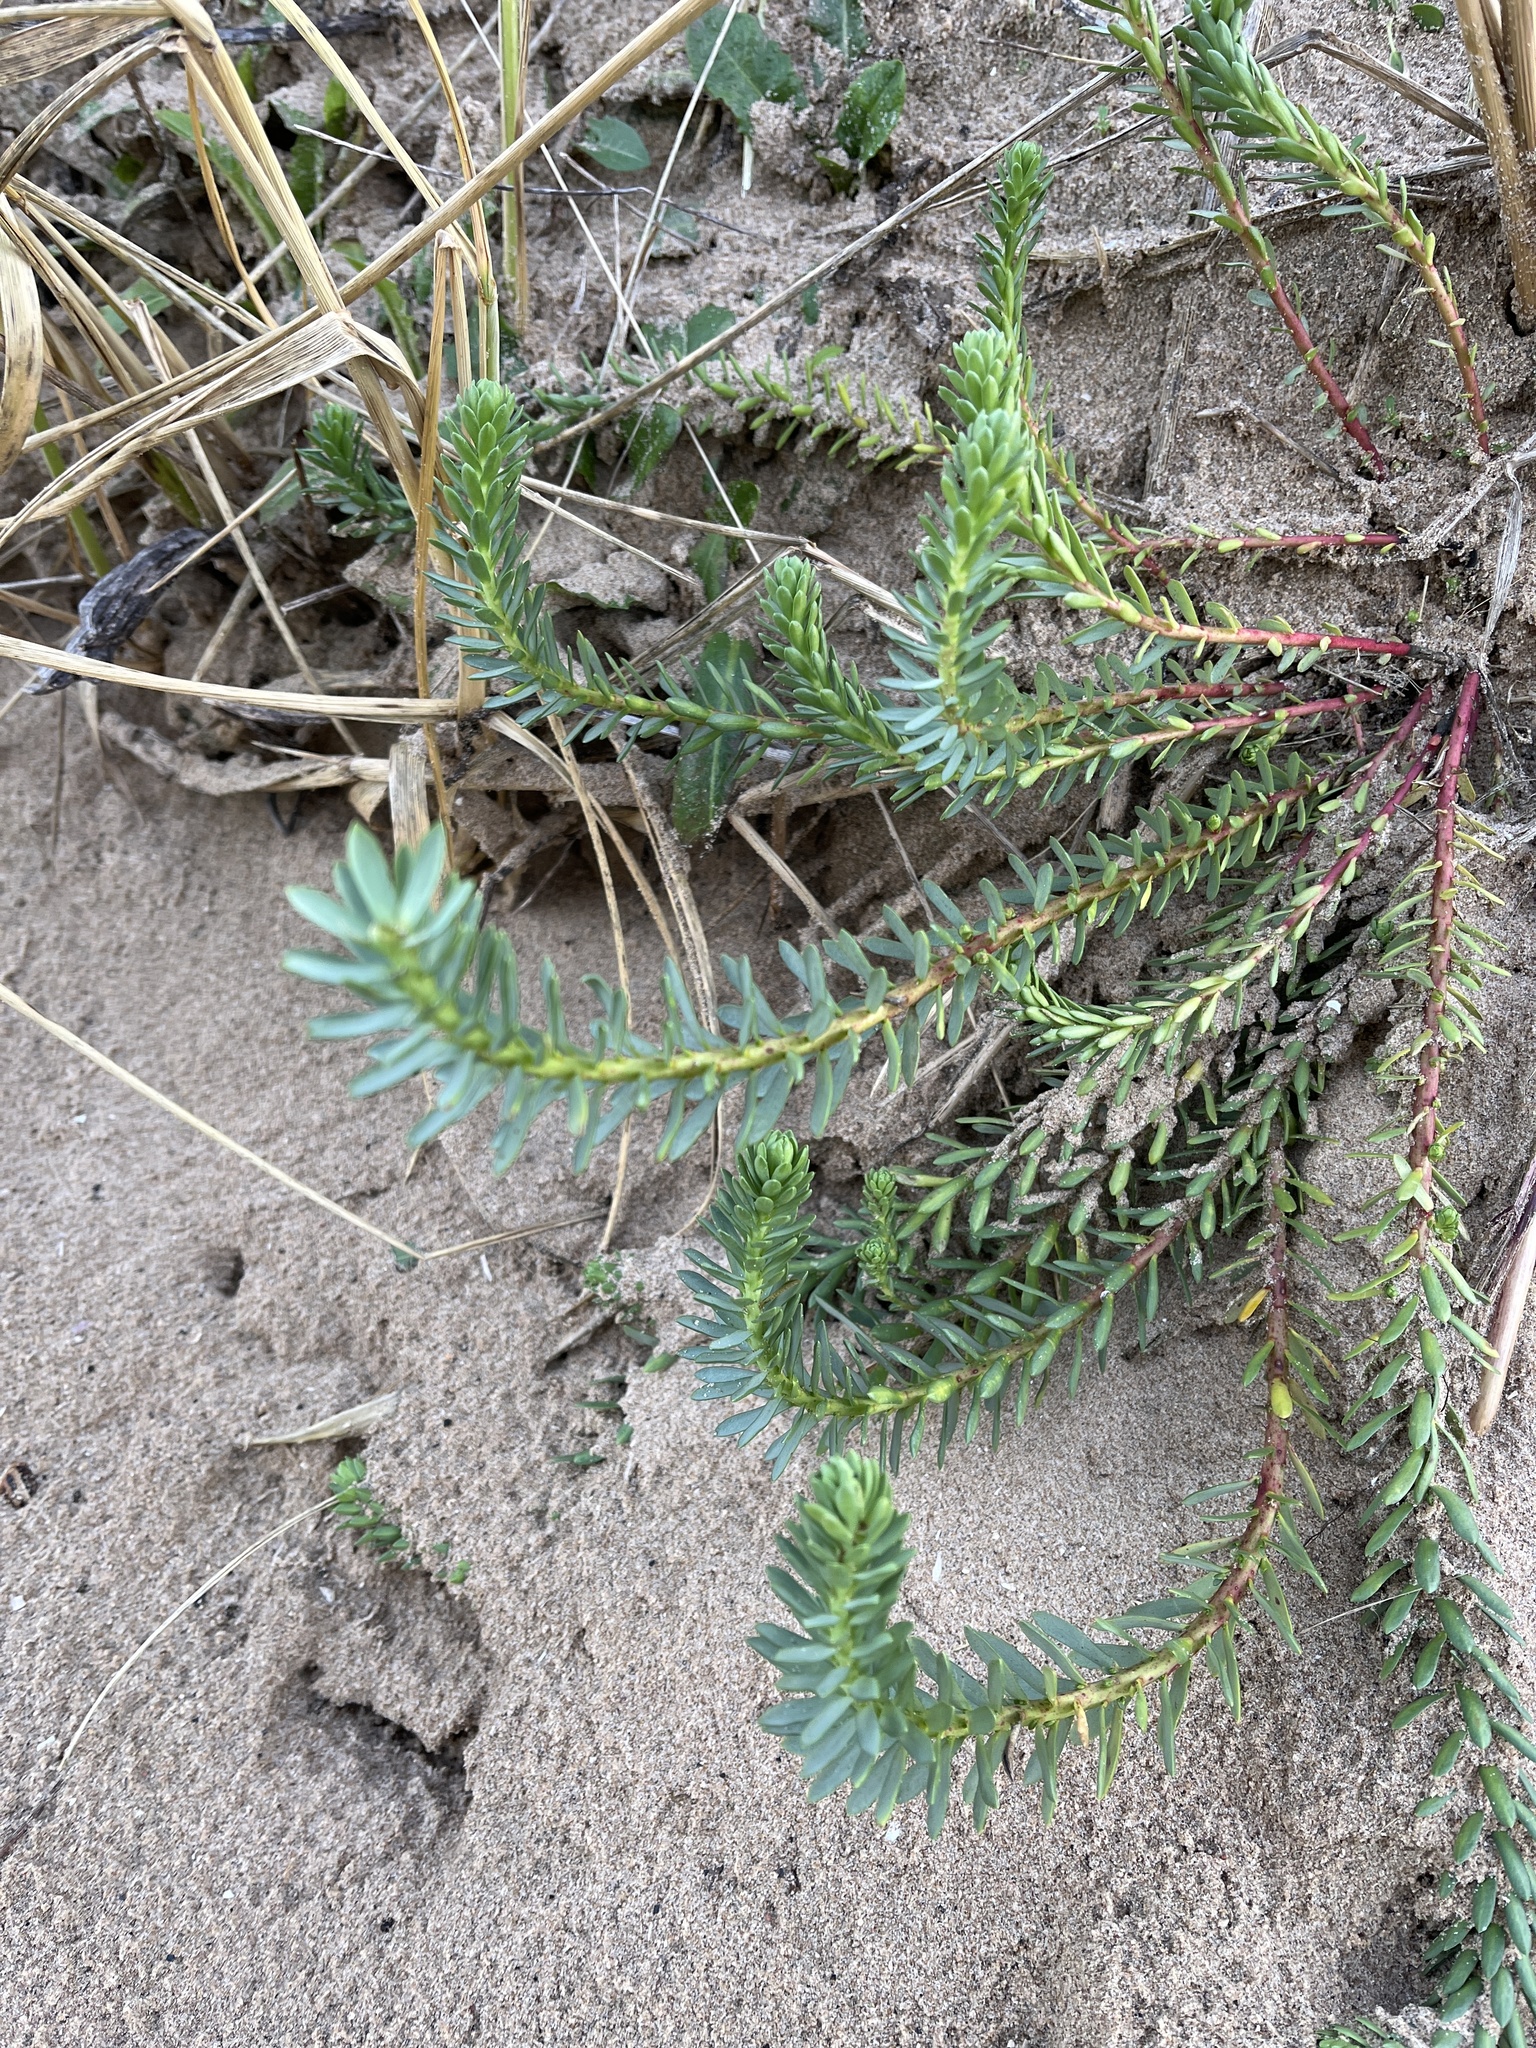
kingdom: Plantae
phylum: Tracheophyta
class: Magnoliopsida
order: Malpighiales
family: Euphorbiaceae
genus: Euphorbia
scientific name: Euphorbia paralias
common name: Sea spurge
